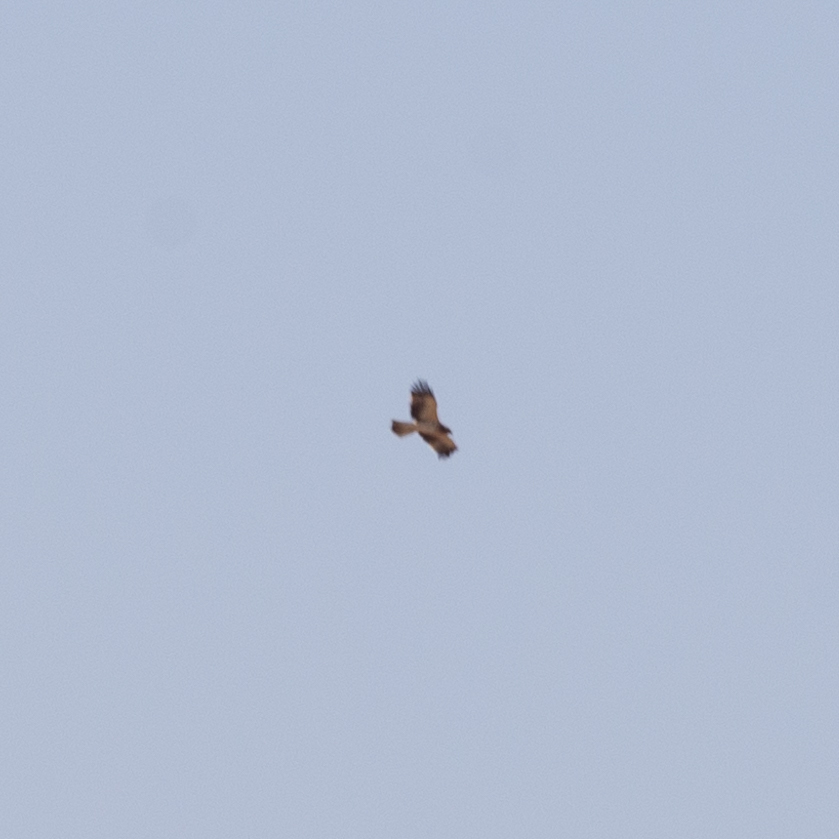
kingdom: Animalia
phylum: Chordata
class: Aves
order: Accipitriformes
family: Accipitridae
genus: Hieraaetus
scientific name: Hieraaetus pennatus
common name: Booted eagle
